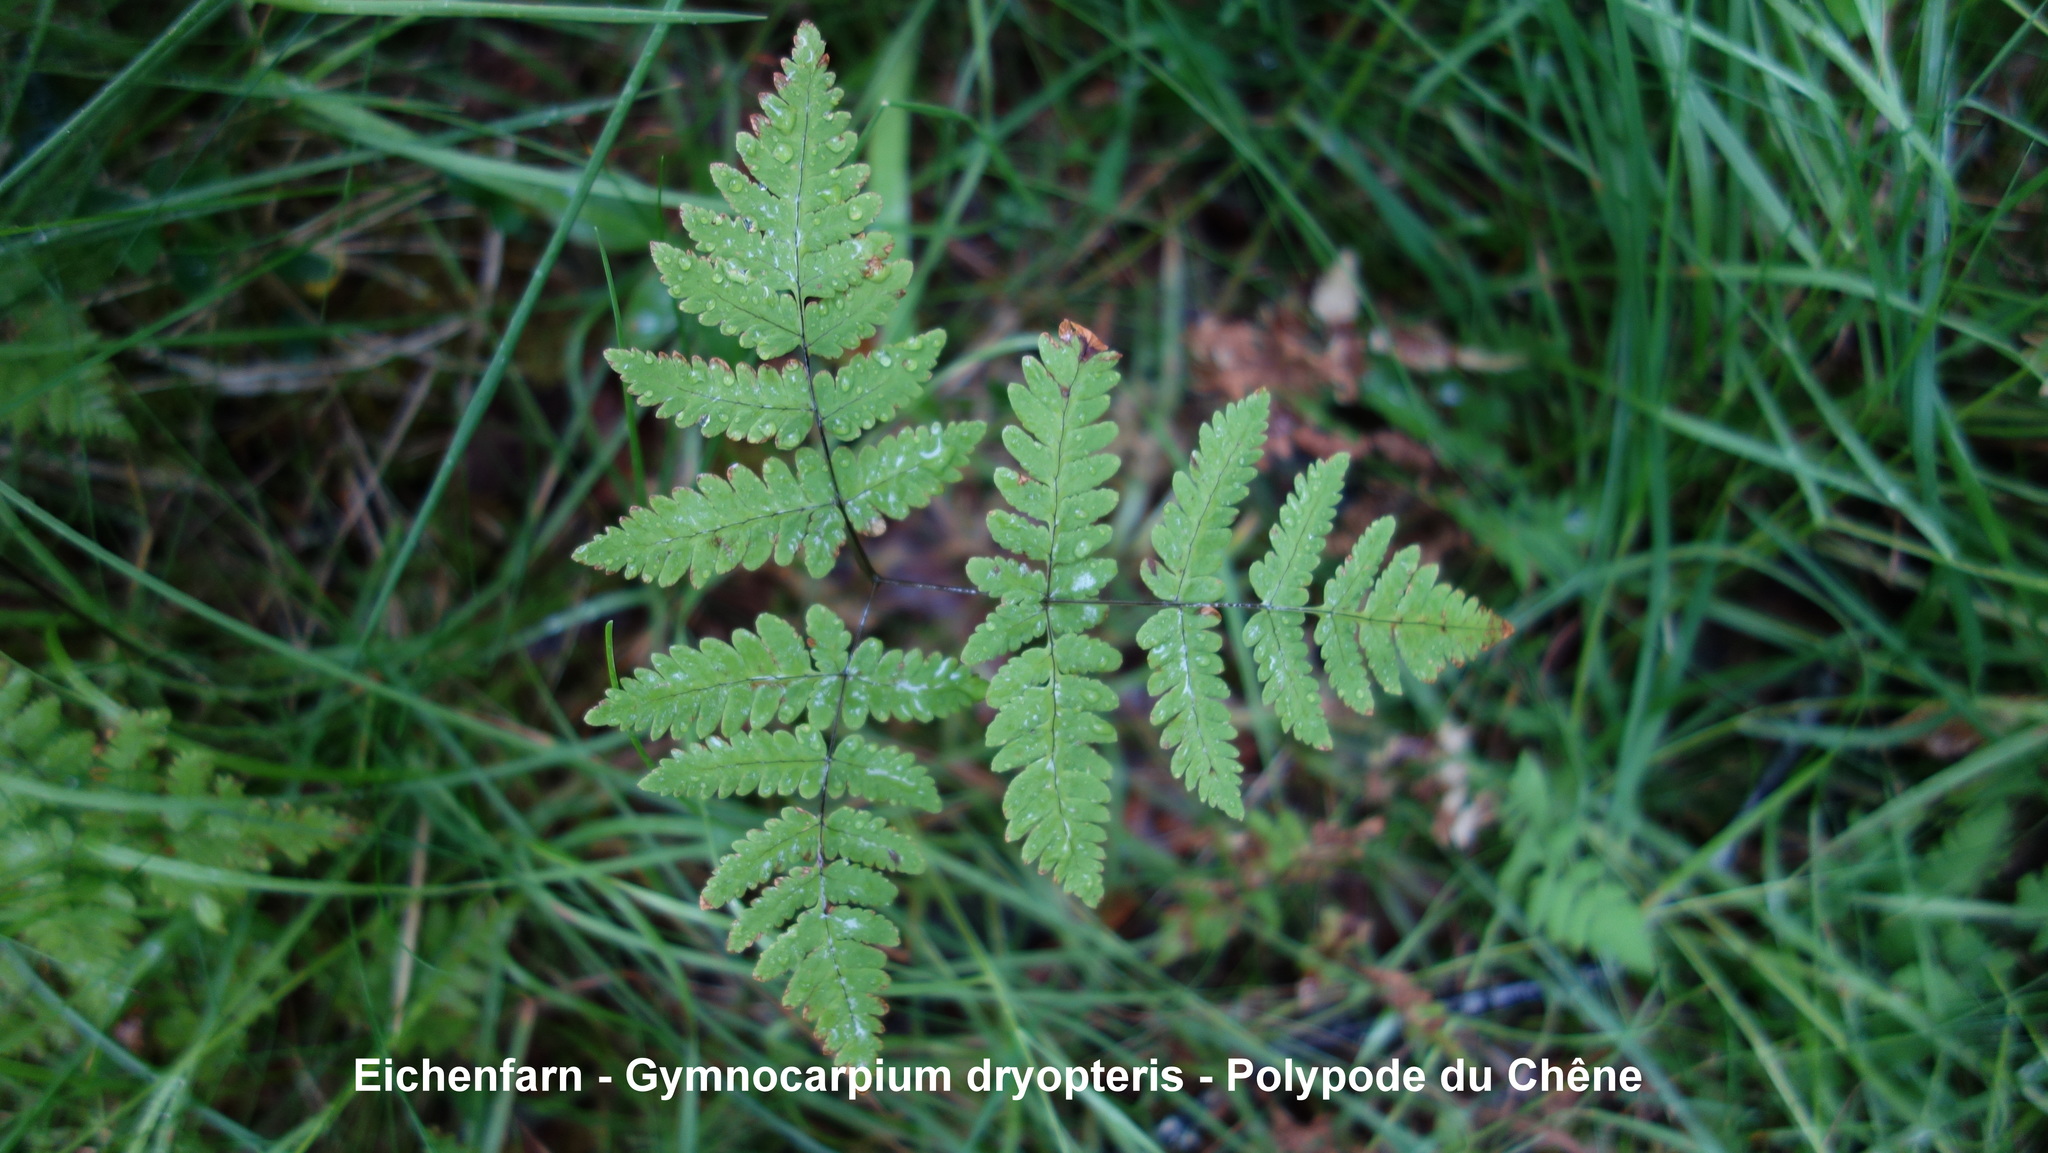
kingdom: Plantae
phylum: Tracheophyta
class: Polypodiopsida
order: Polypodiales
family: Cystopteridaceae
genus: Gymnocarpium
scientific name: Gymnocarpium dryopteris
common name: Oak fern
